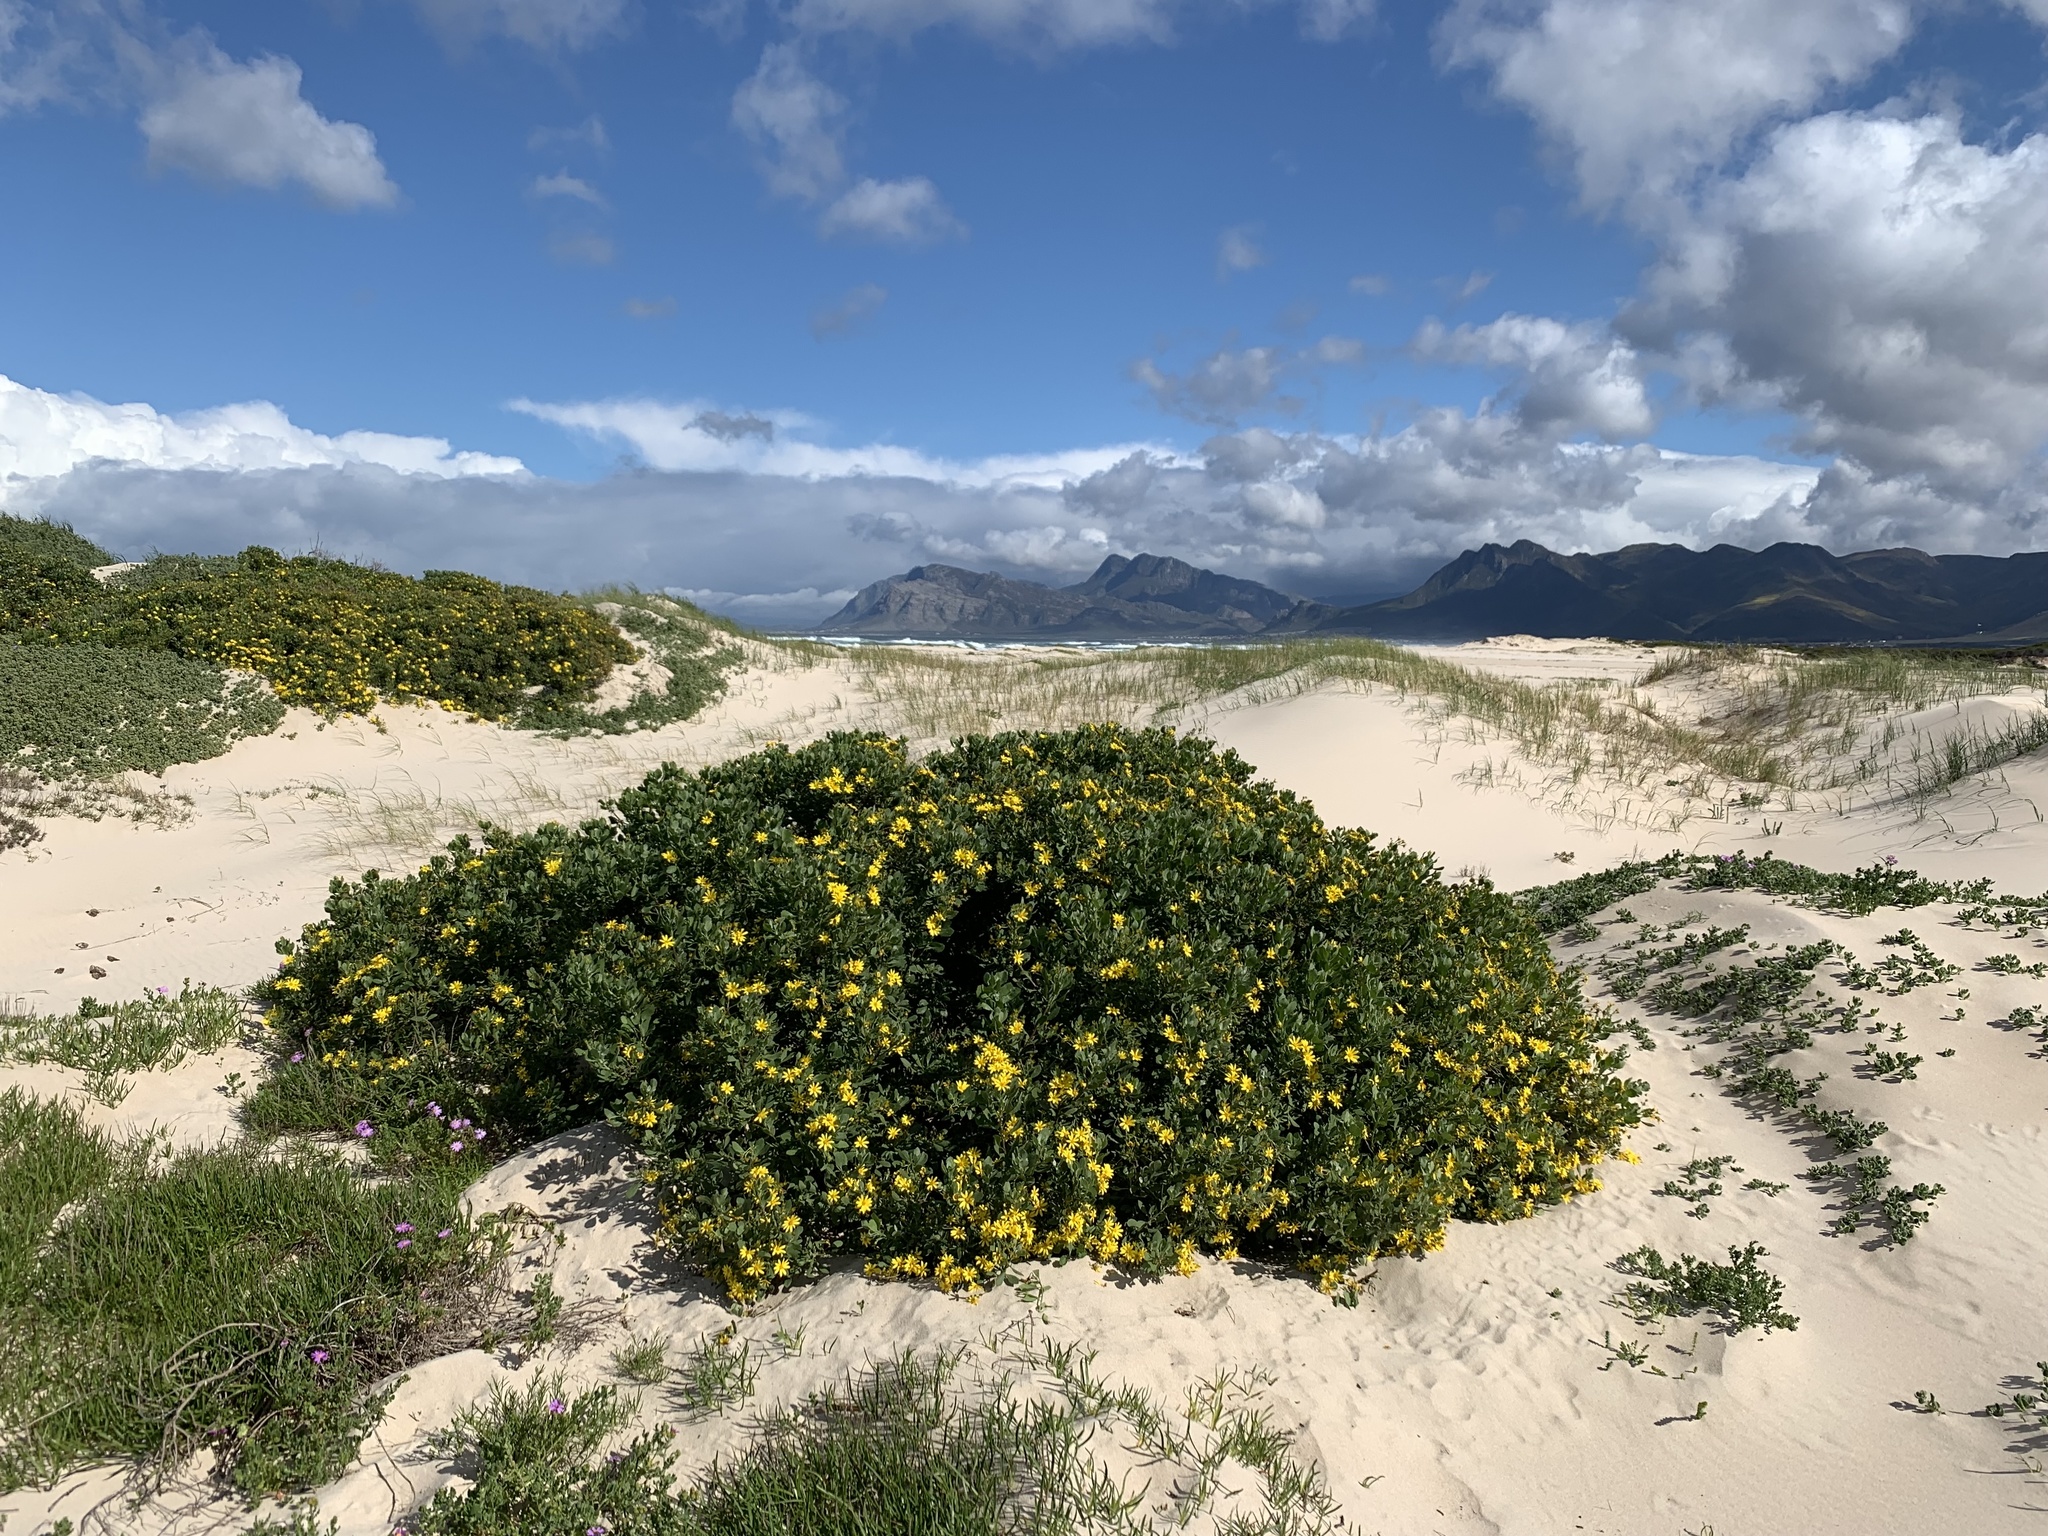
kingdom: Plantae
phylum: Tracheophyta
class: Magnoliopsida
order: Asterales
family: Asteraceae
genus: Osteospermum
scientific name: Osteospermum moniliferum
